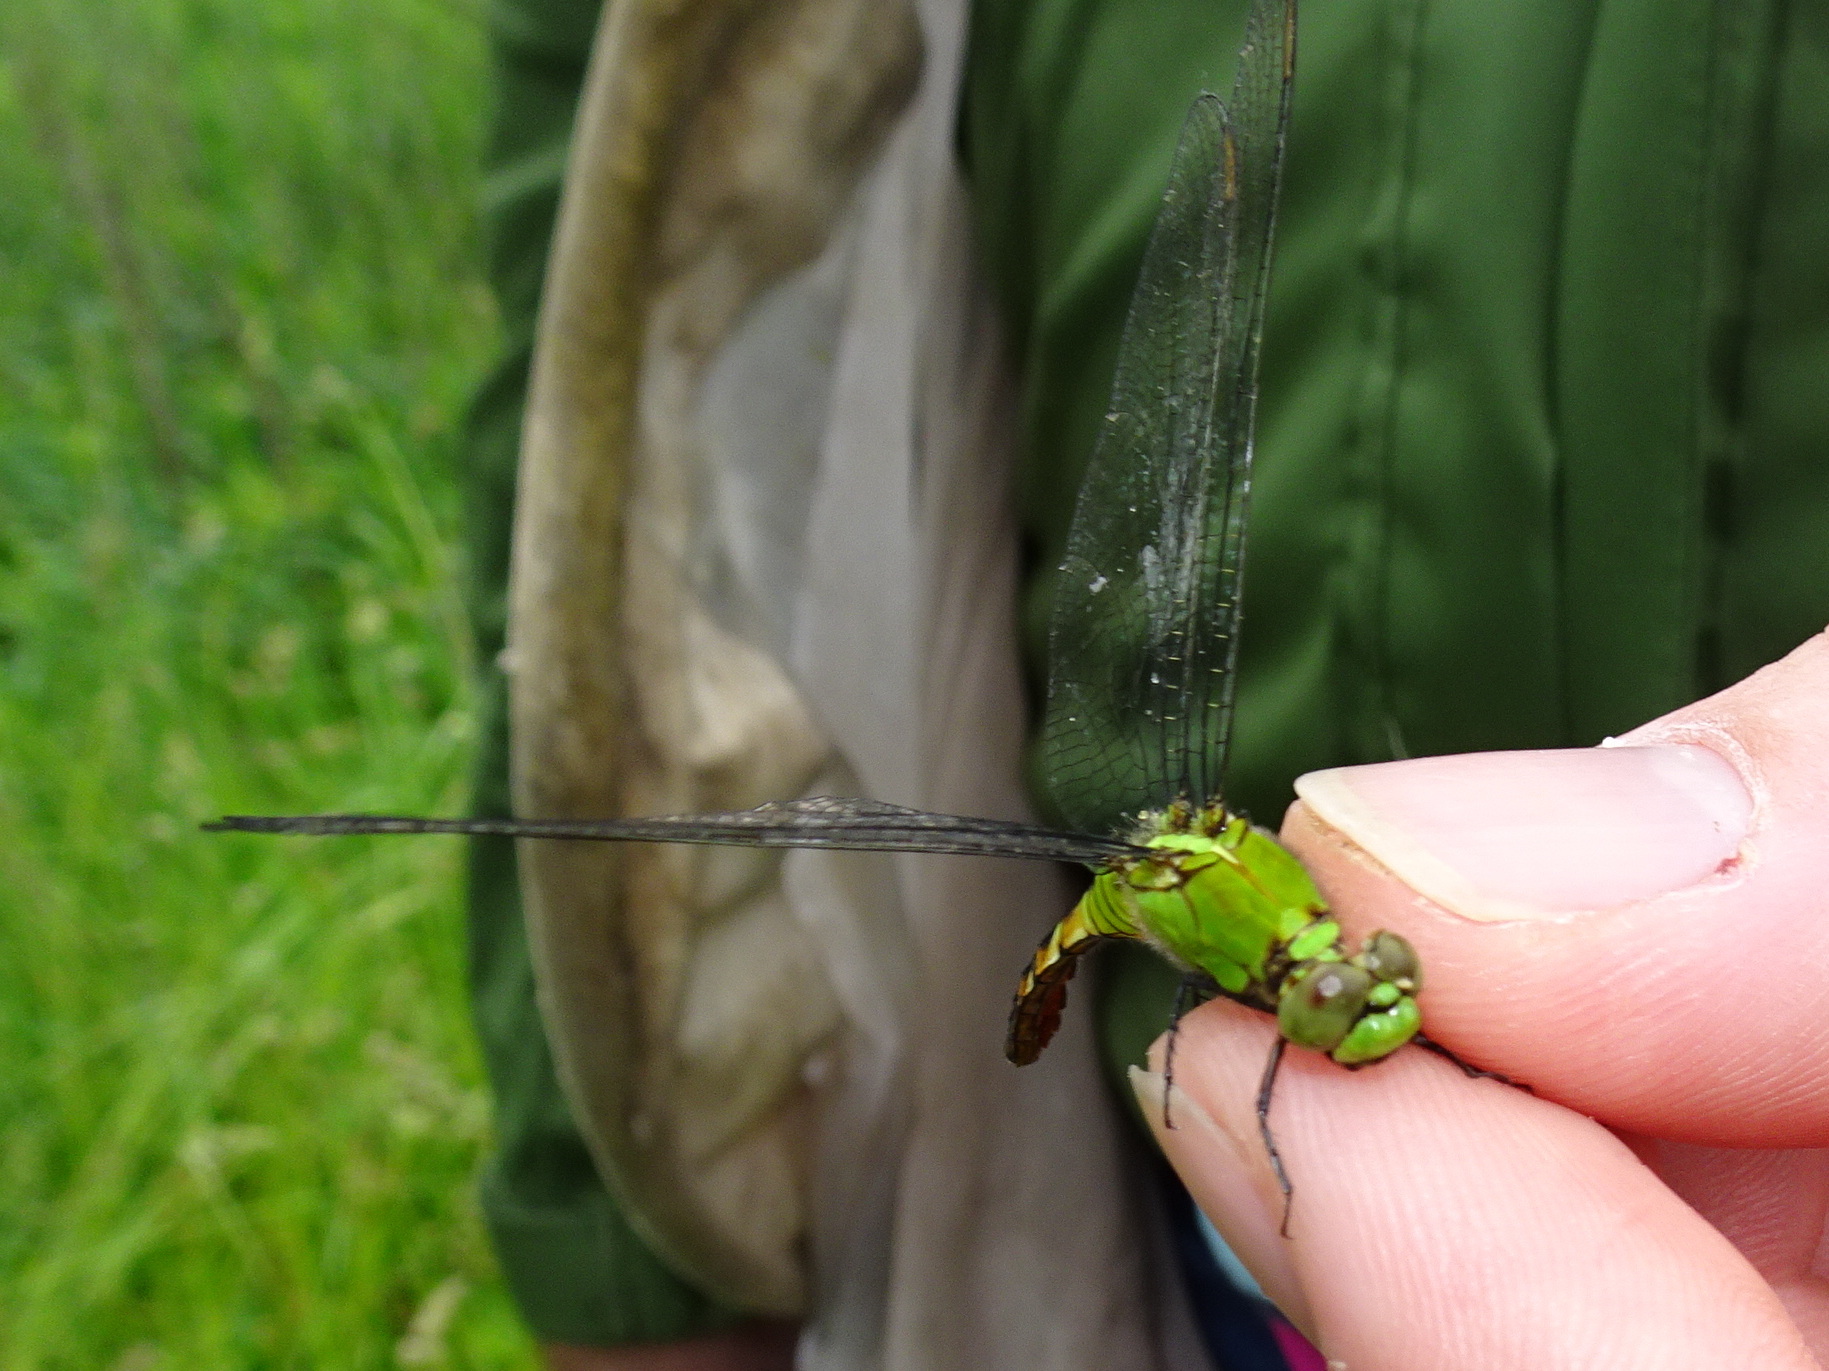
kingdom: Animalia
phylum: Arthropoda
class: Insecta
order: Odonata
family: Libellulidae
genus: Erythemis
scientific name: Erythemis simplicicollis
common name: Eastern pondhawk
